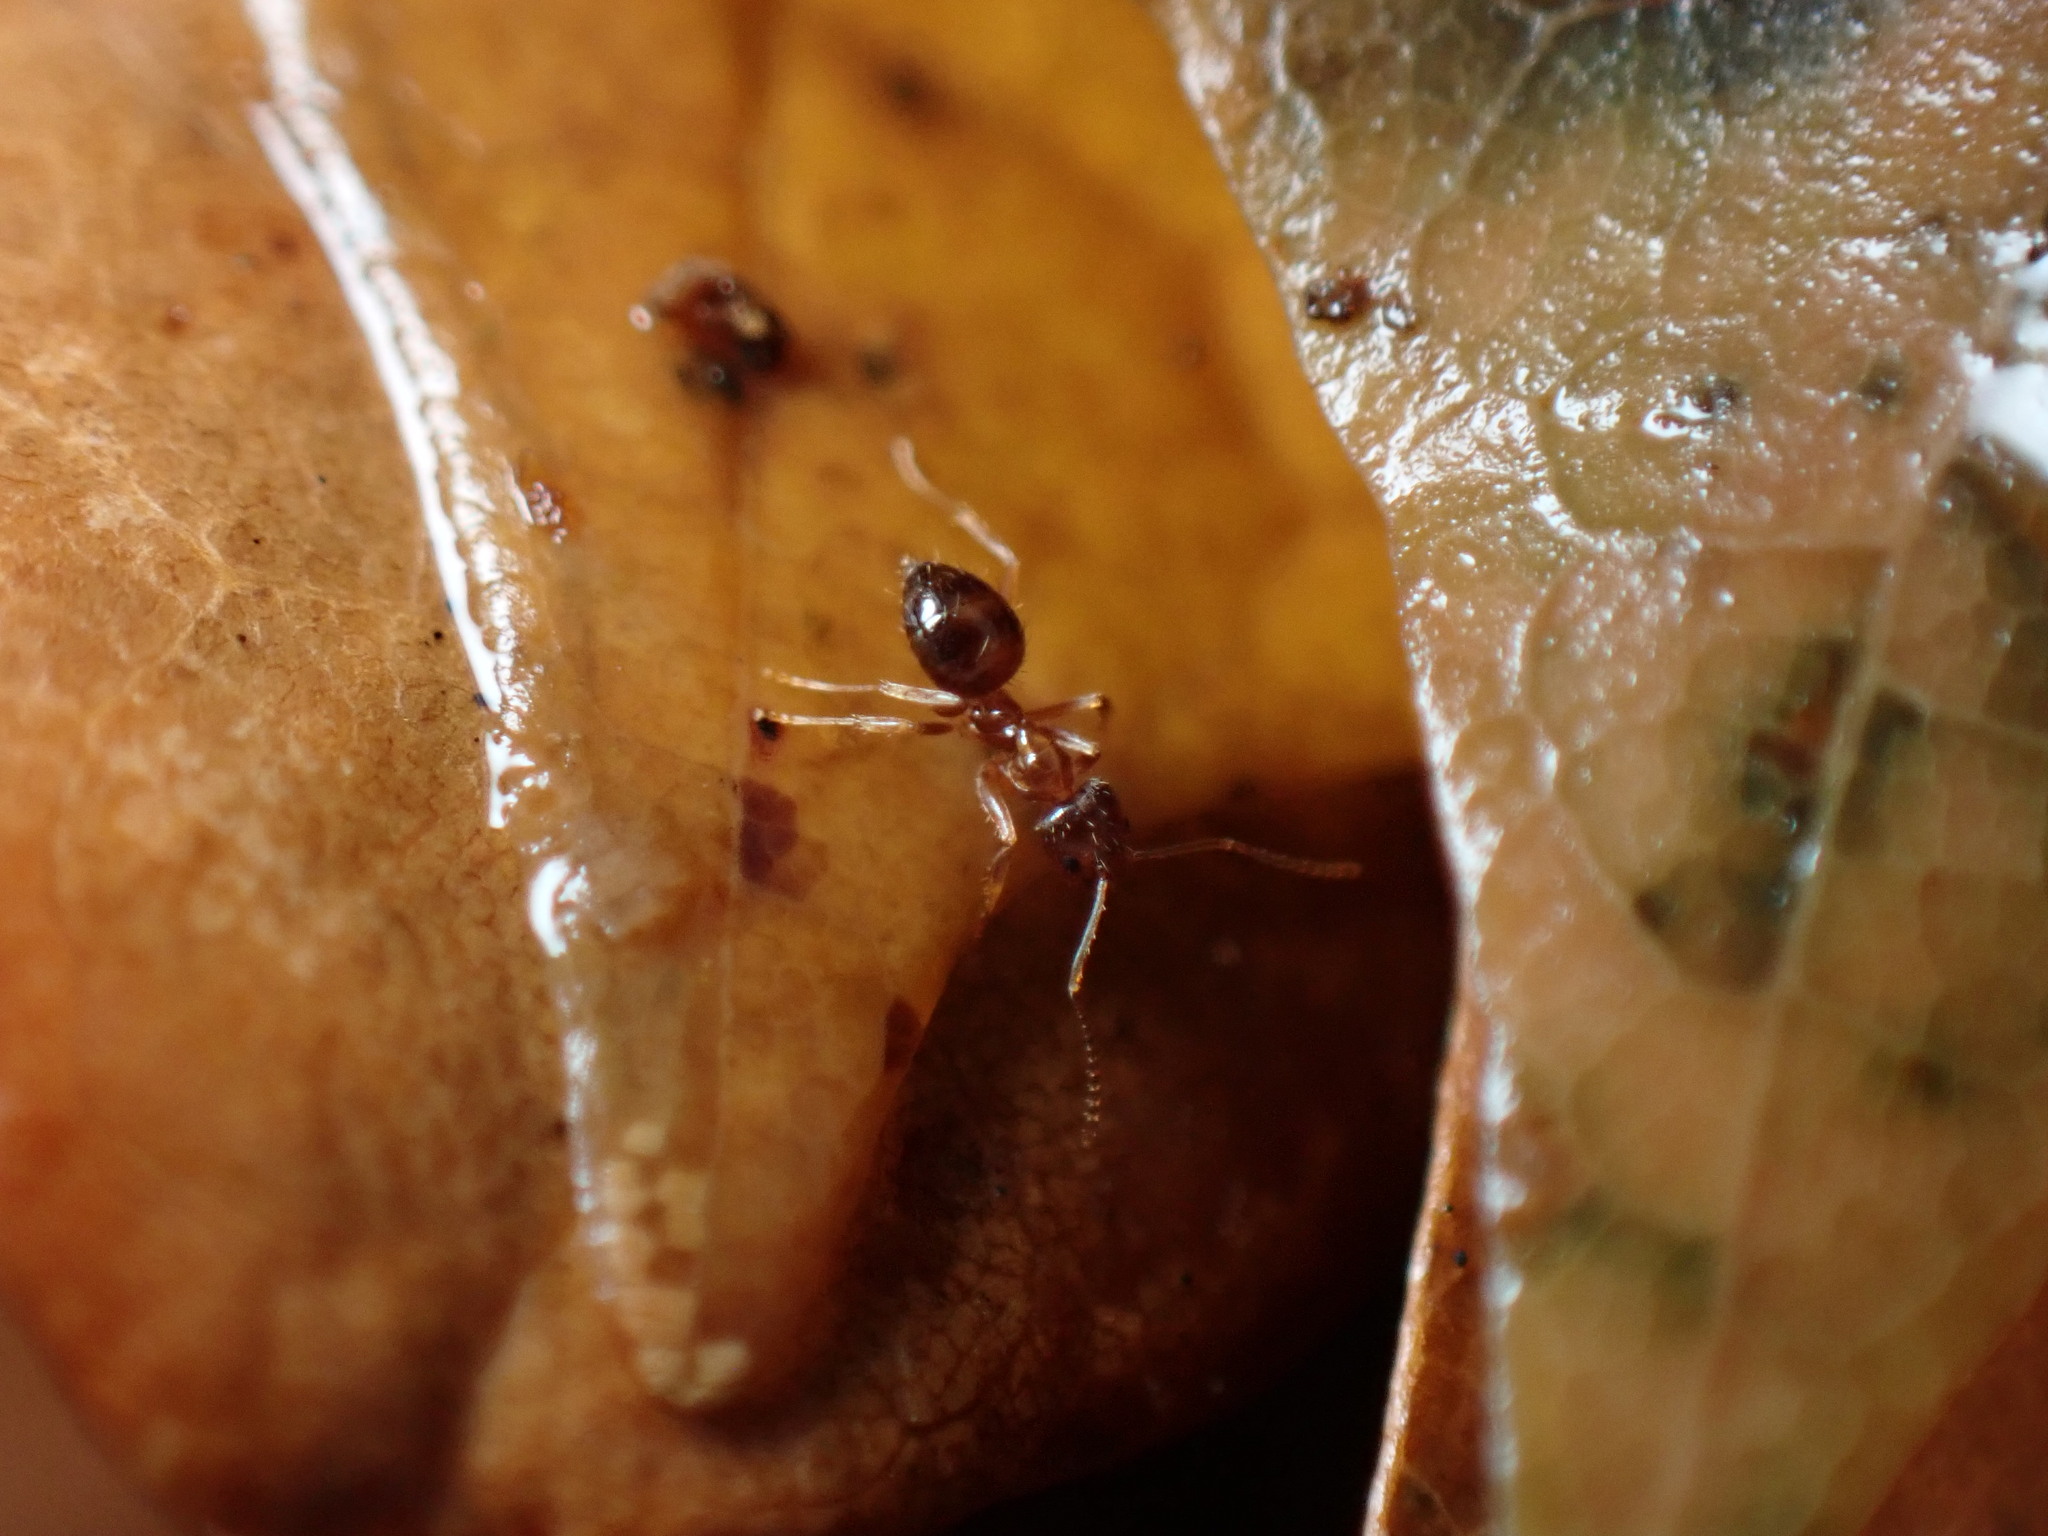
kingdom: Animalia
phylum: Arthropoda
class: Insecta
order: Hymenoptera
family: Formicidae
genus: Paratrechina
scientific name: Paratrechina flavipes
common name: Eastern asian formicine ant
